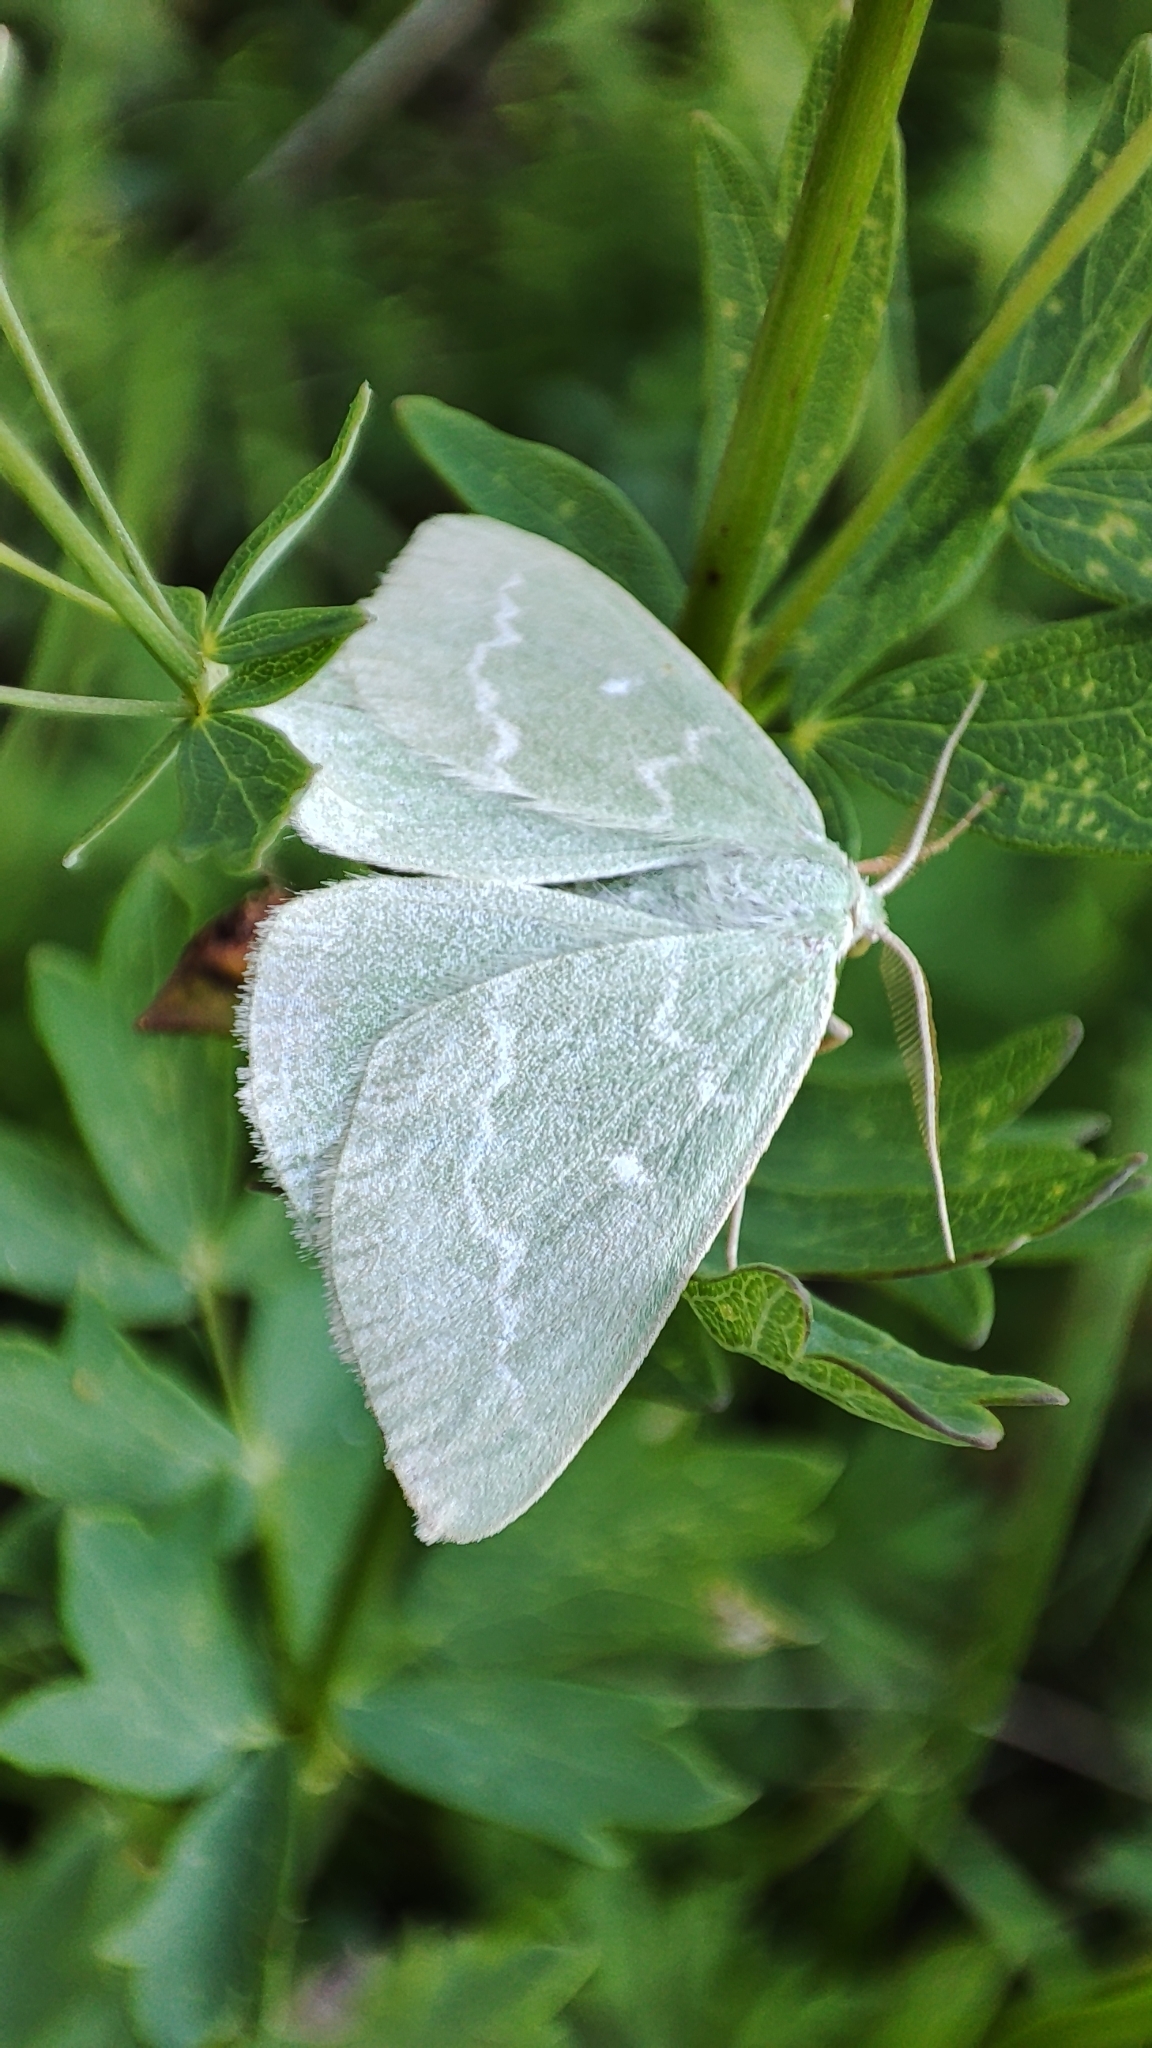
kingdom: Animalia
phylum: Arthropoda
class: Insecta
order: Lepidoptera
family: Geometridae
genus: Thetidia
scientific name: Thetidia smaragdaria
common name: Essex emerald
